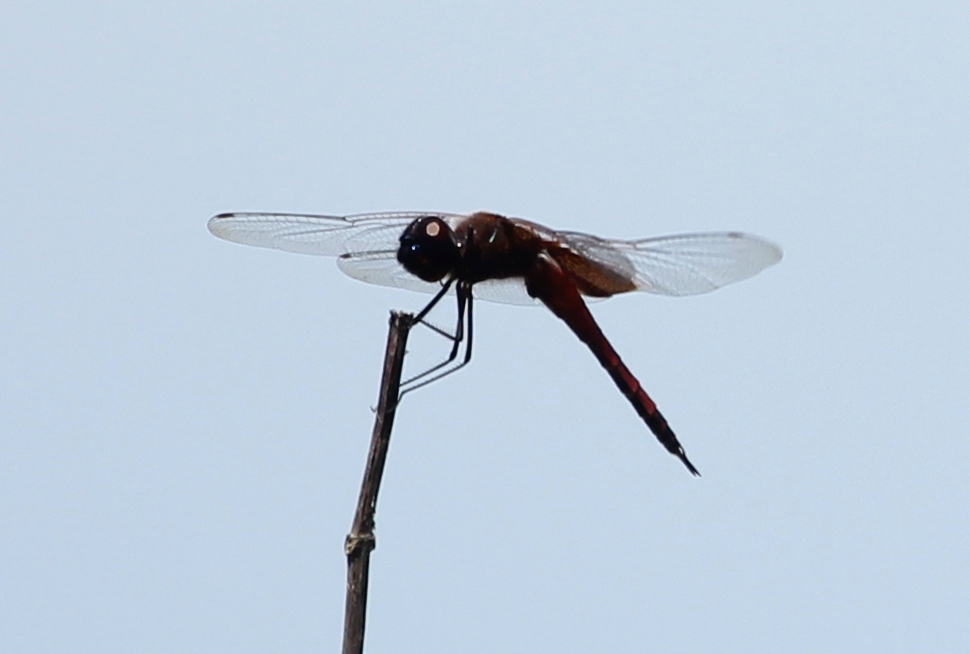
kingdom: Animalia
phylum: Arthropoda
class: Insecta
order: Odonata
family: Libellulidae
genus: Tramea
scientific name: Tramea insularis
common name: Antillean saddlebags
